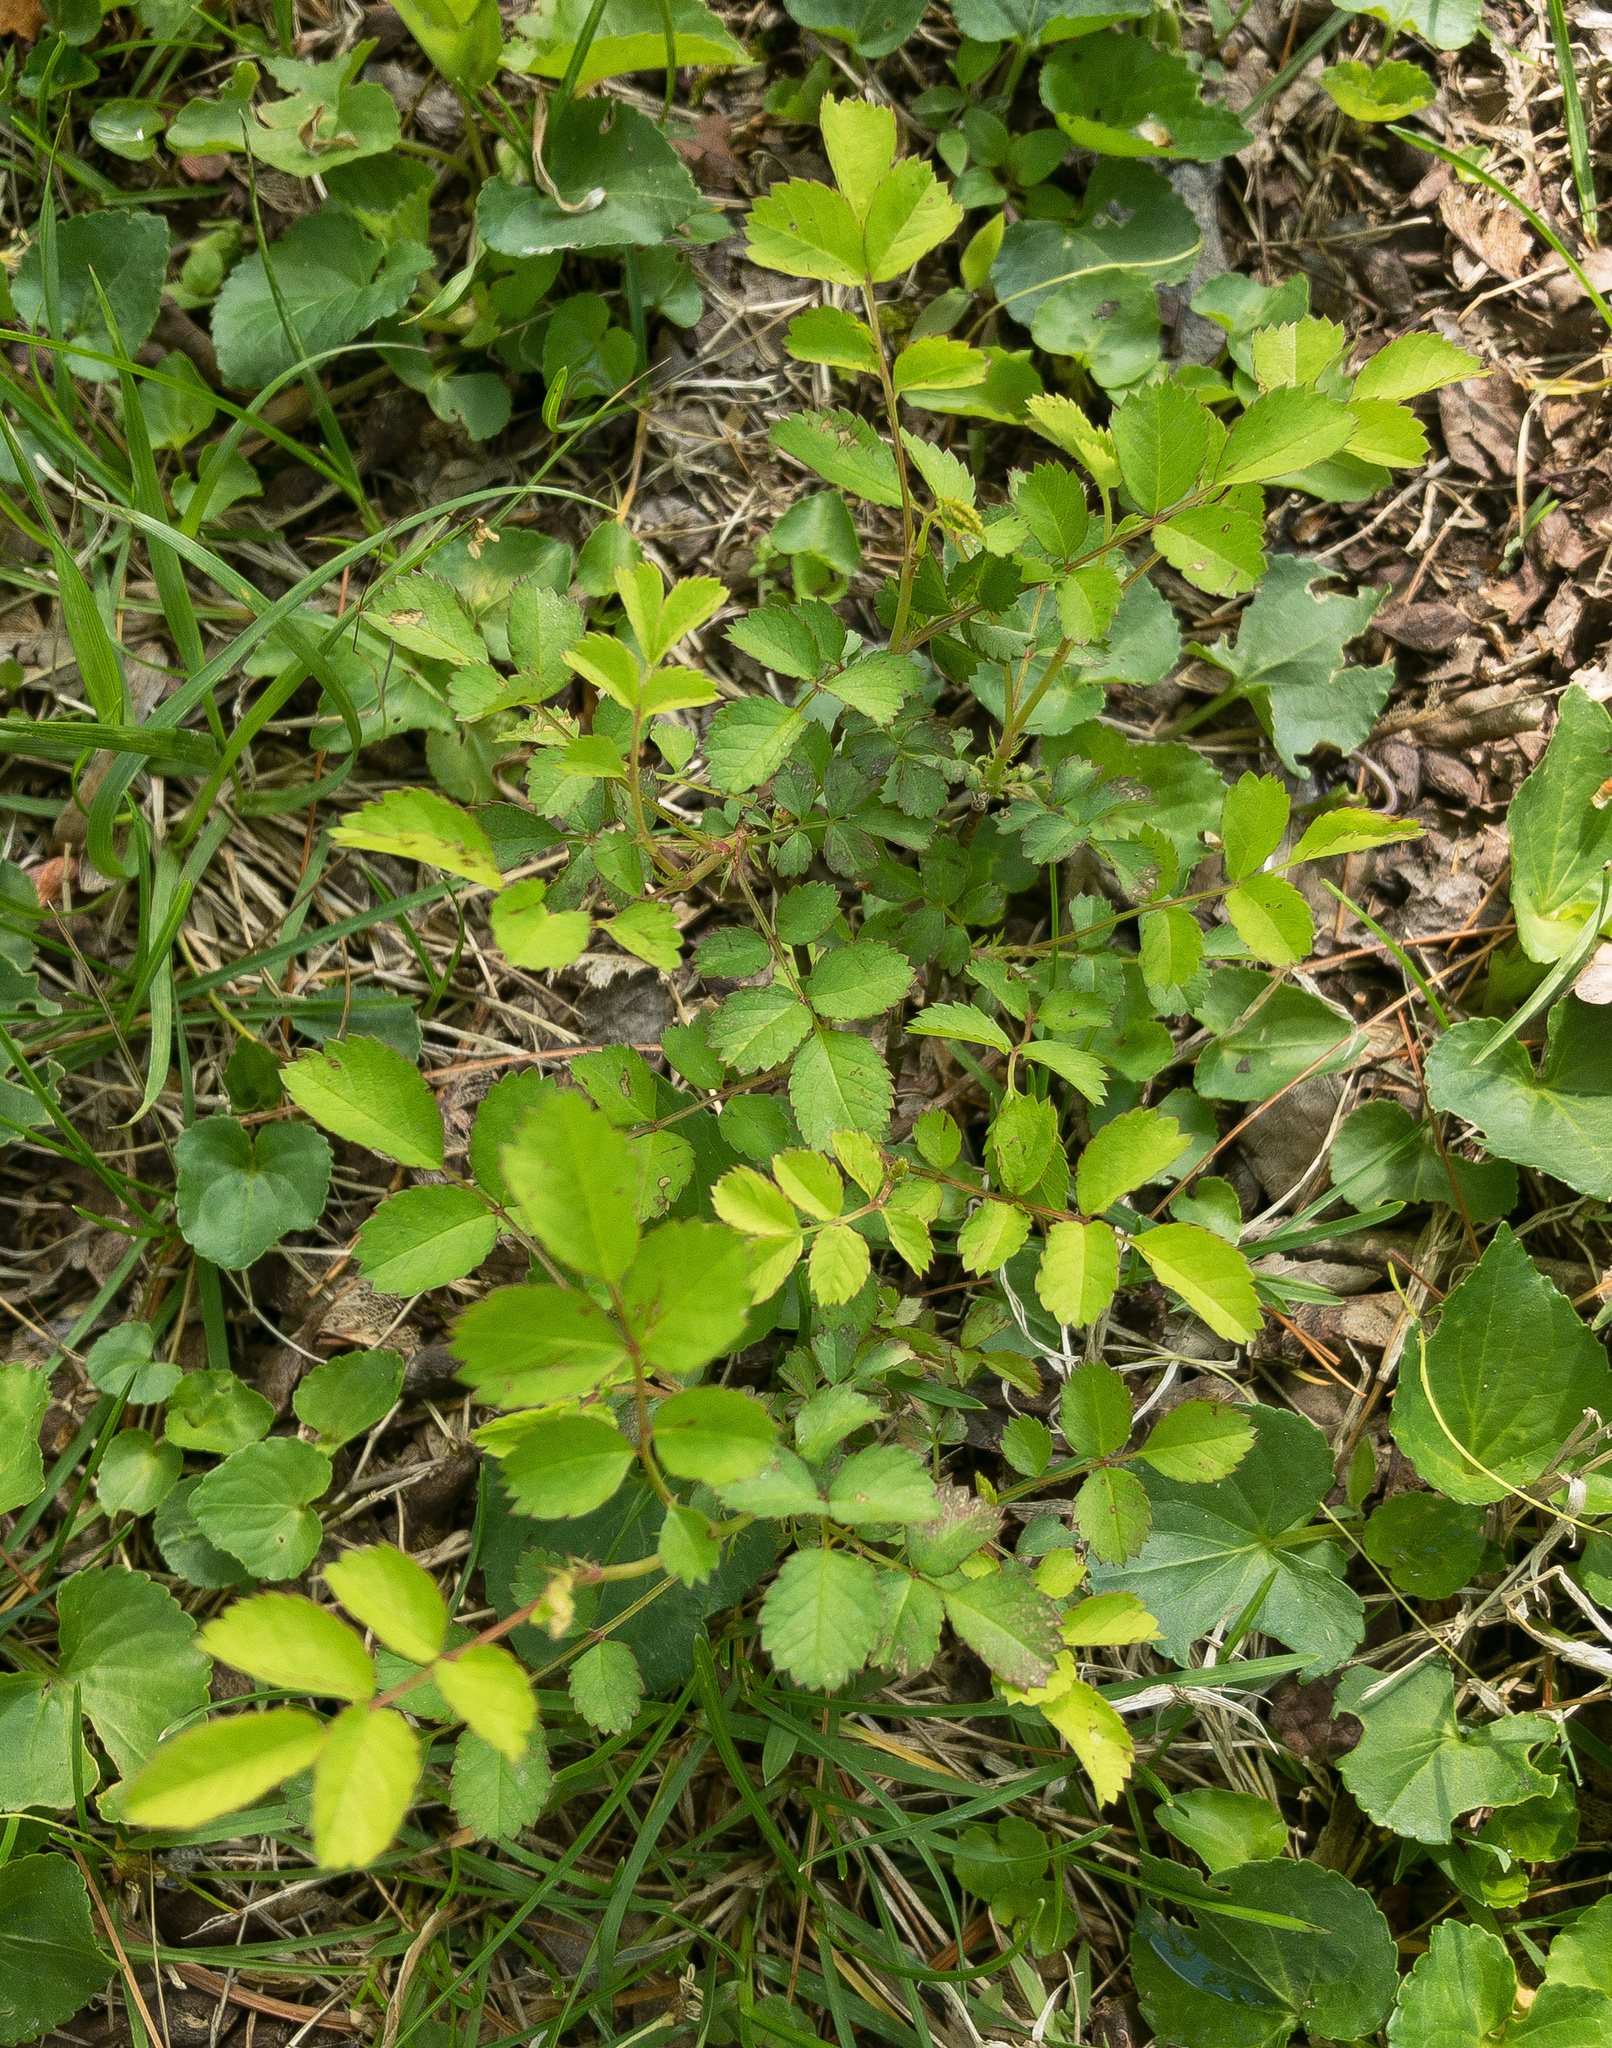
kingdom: Plantae
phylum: Tracheophyta
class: Magnoliopsida
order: Rosales
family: Rosaceae
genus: Rosa
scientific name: Rosa multiflora
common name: Multiflora rose
